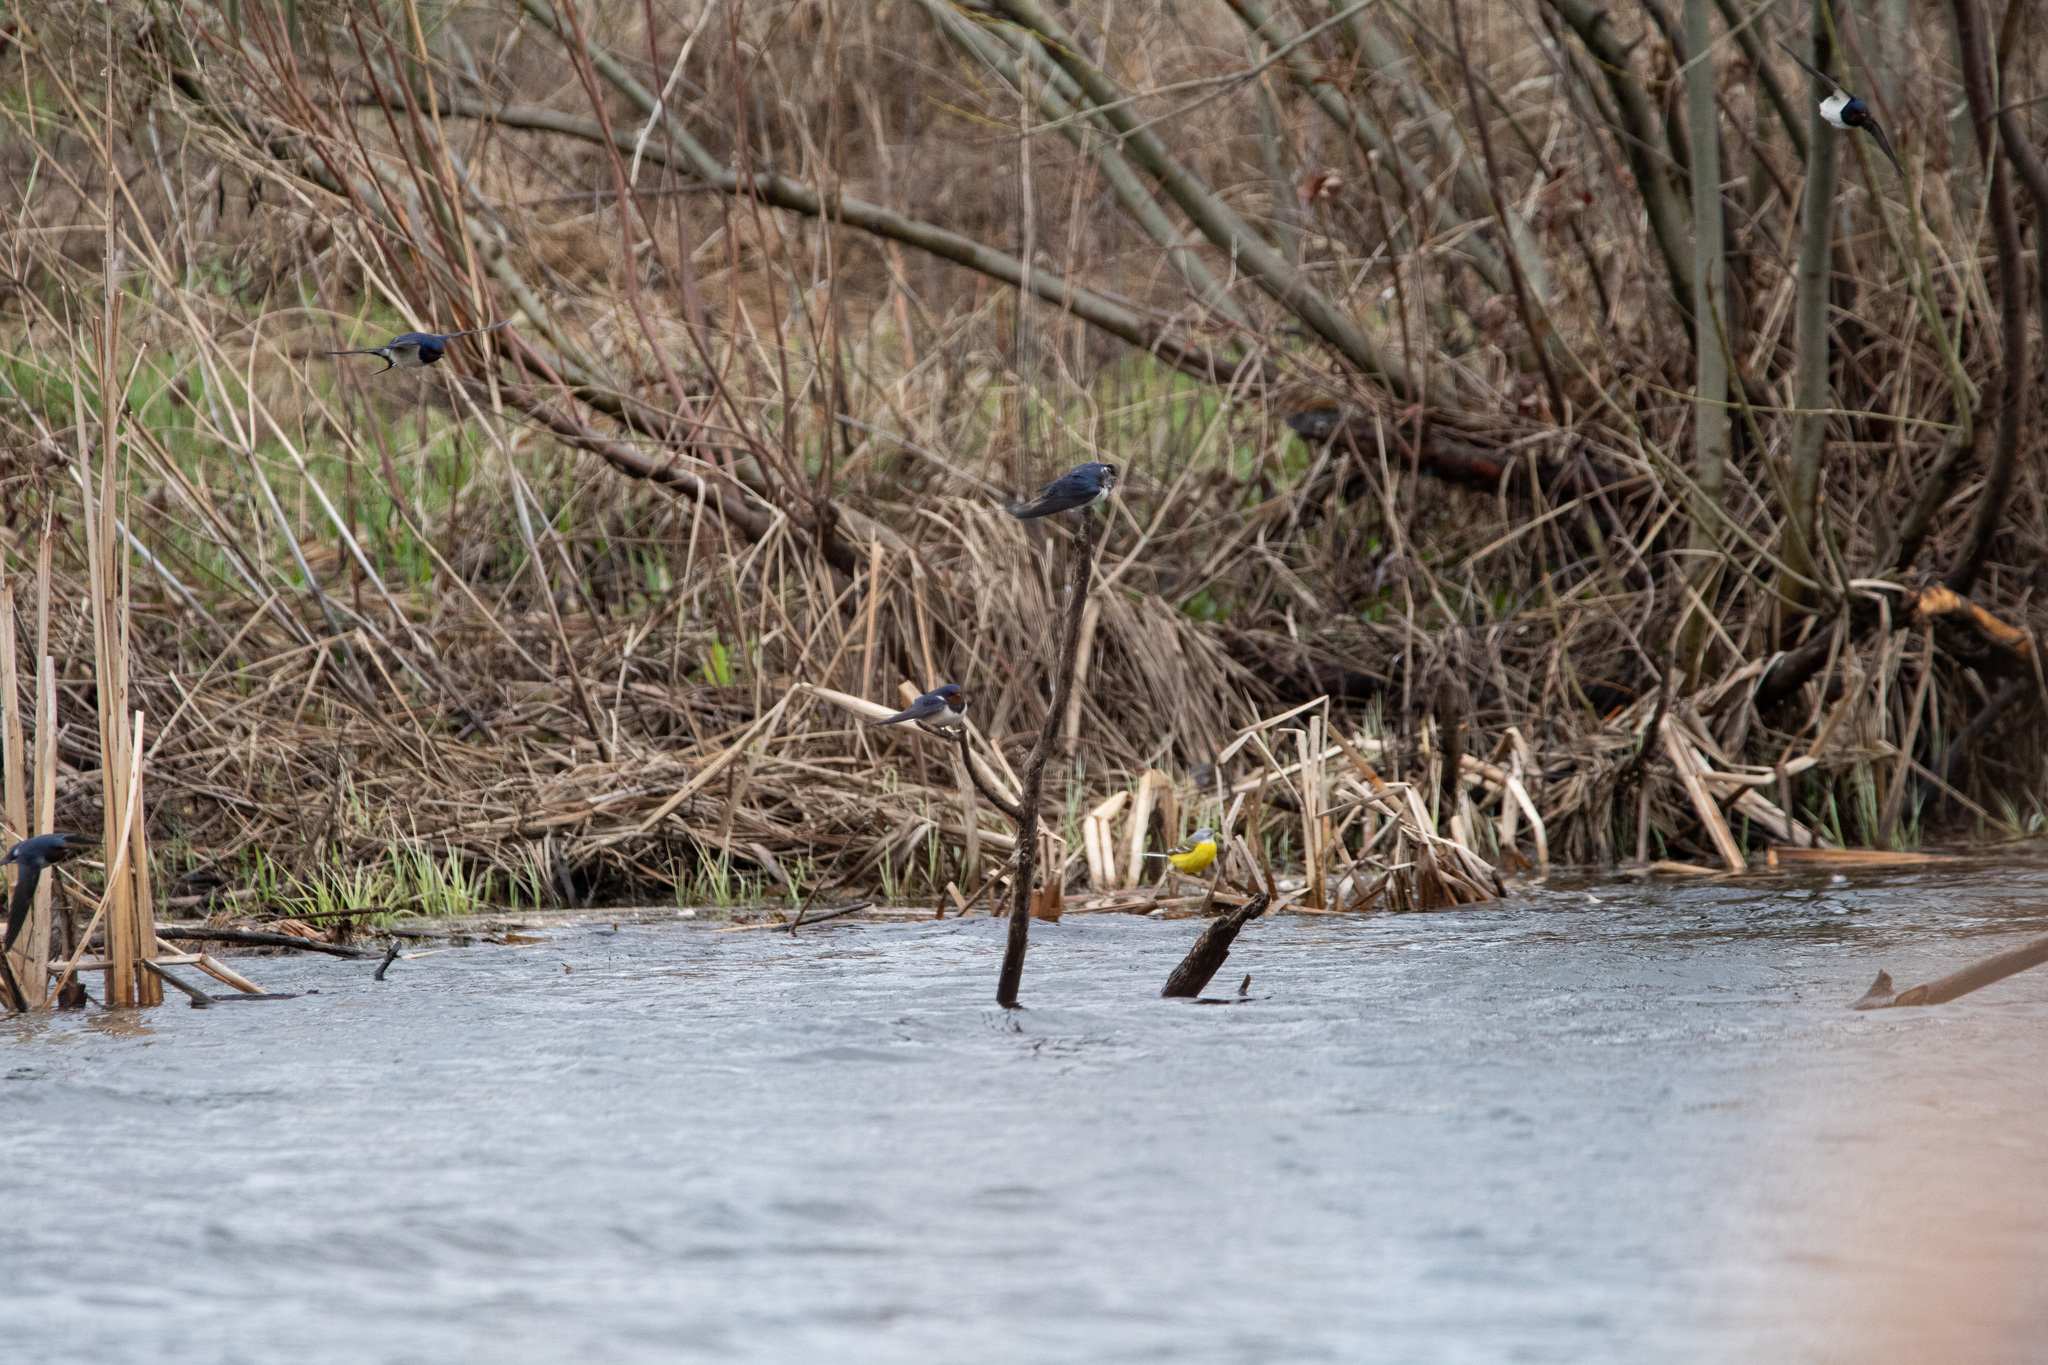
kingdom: Animalia
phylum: Chordata
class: Aves
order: Passeriformes
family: Hirundinidae
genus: Hirundo
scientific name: Hirundo rustica
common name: Barn swallow
